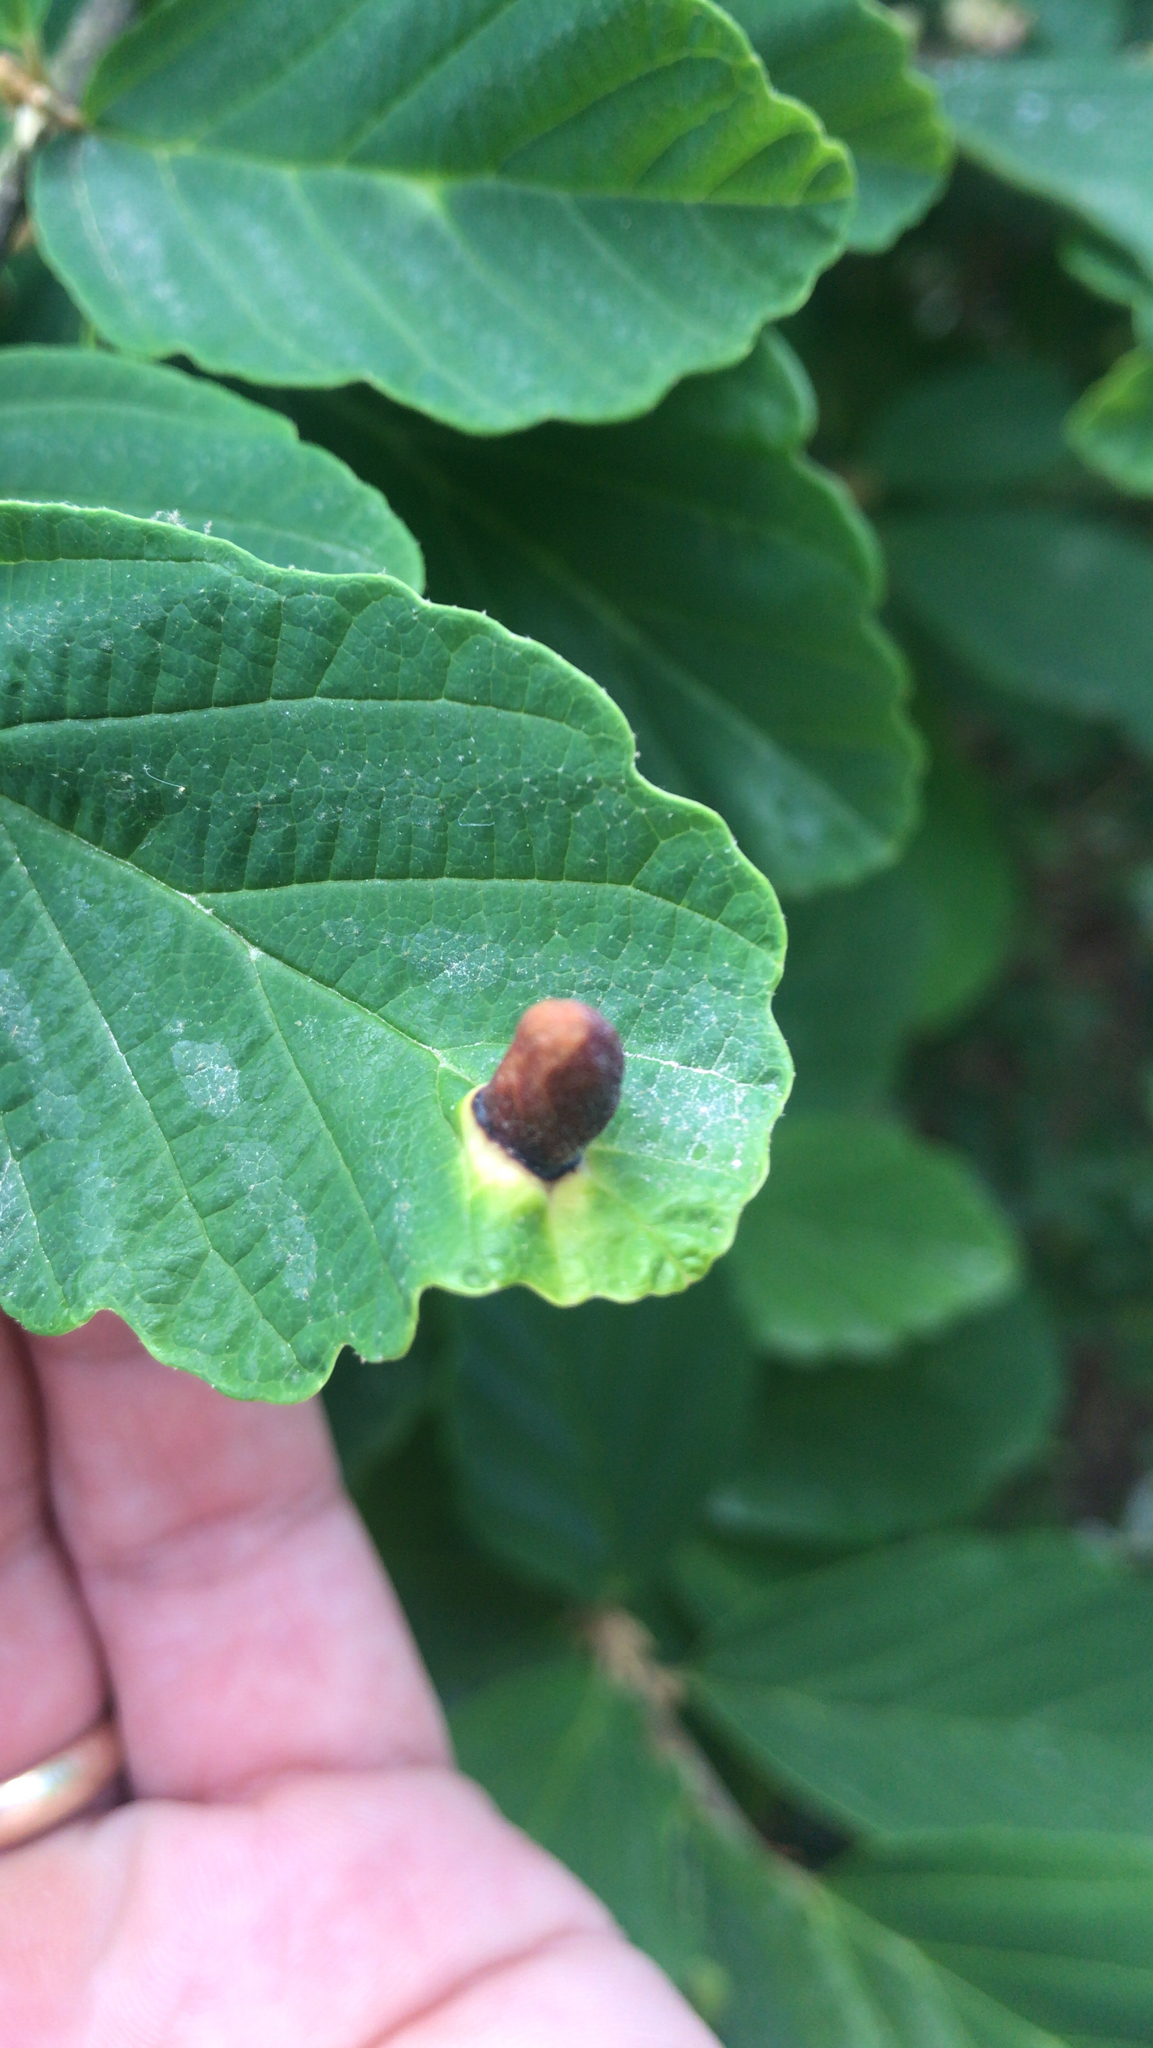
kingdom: Animalia
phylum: Arthropoda
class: Insecta
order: Hemiptera
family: Aphididae
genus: Hormaphis
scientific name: Hormaphis hamamelidis
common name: Witch-hazel cone gall aphid
